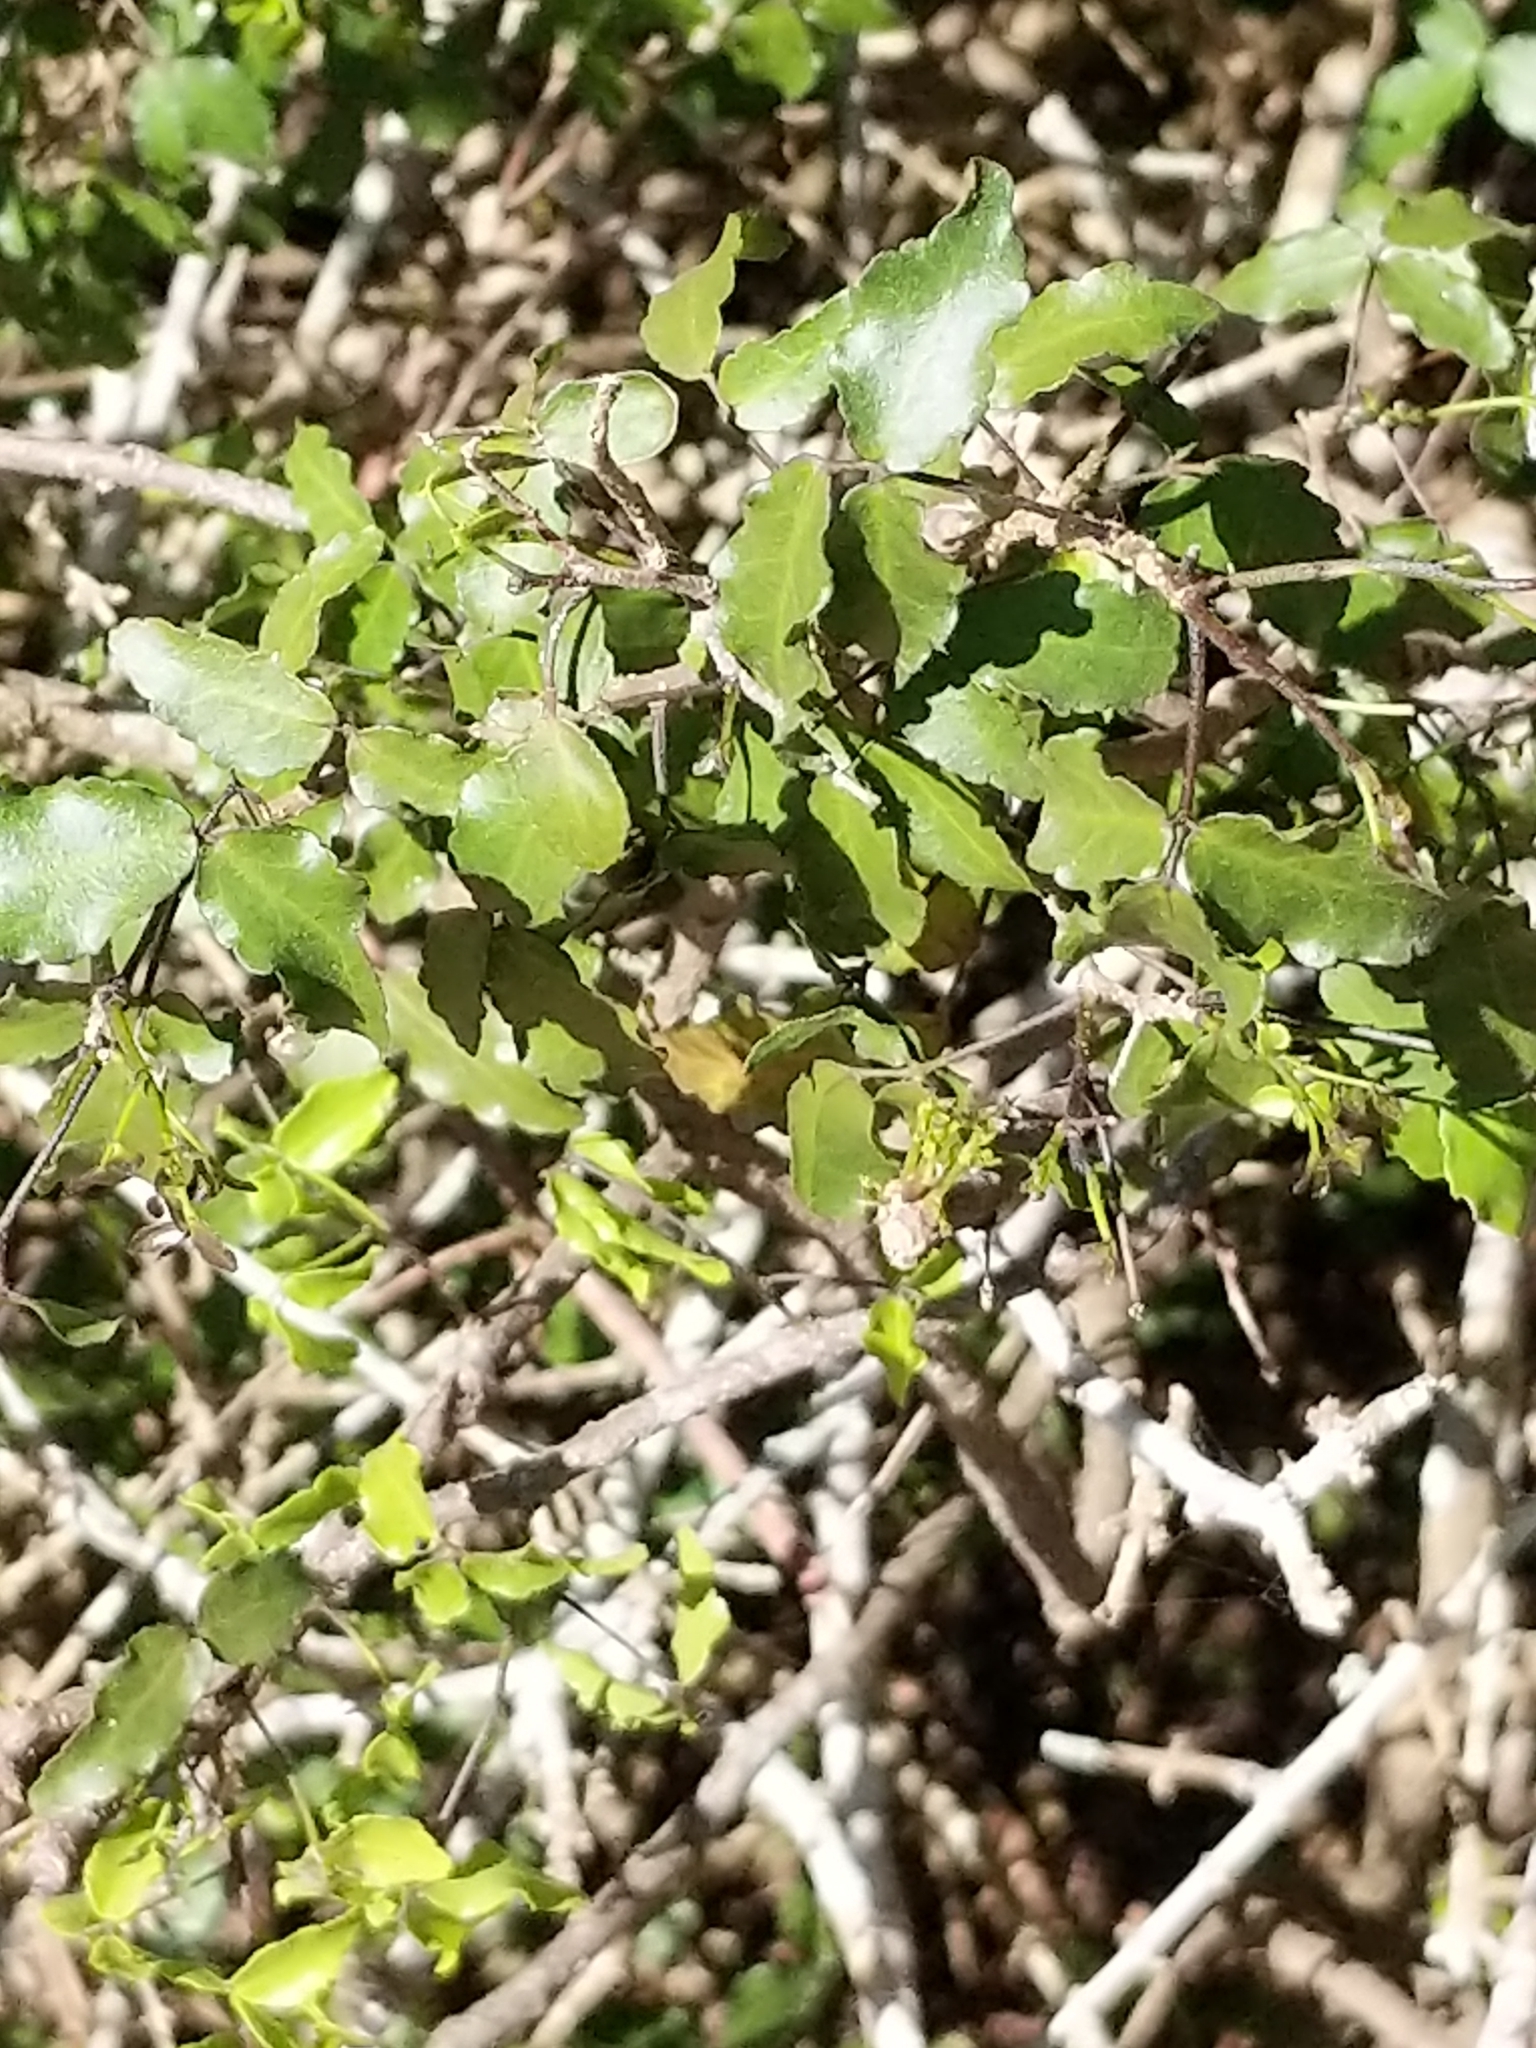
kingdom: Plantae
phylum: Tracheophyta
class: Magnoliopsida
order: Sapindales
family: Rutaceae
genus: Amyris
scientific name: Amyris texana
